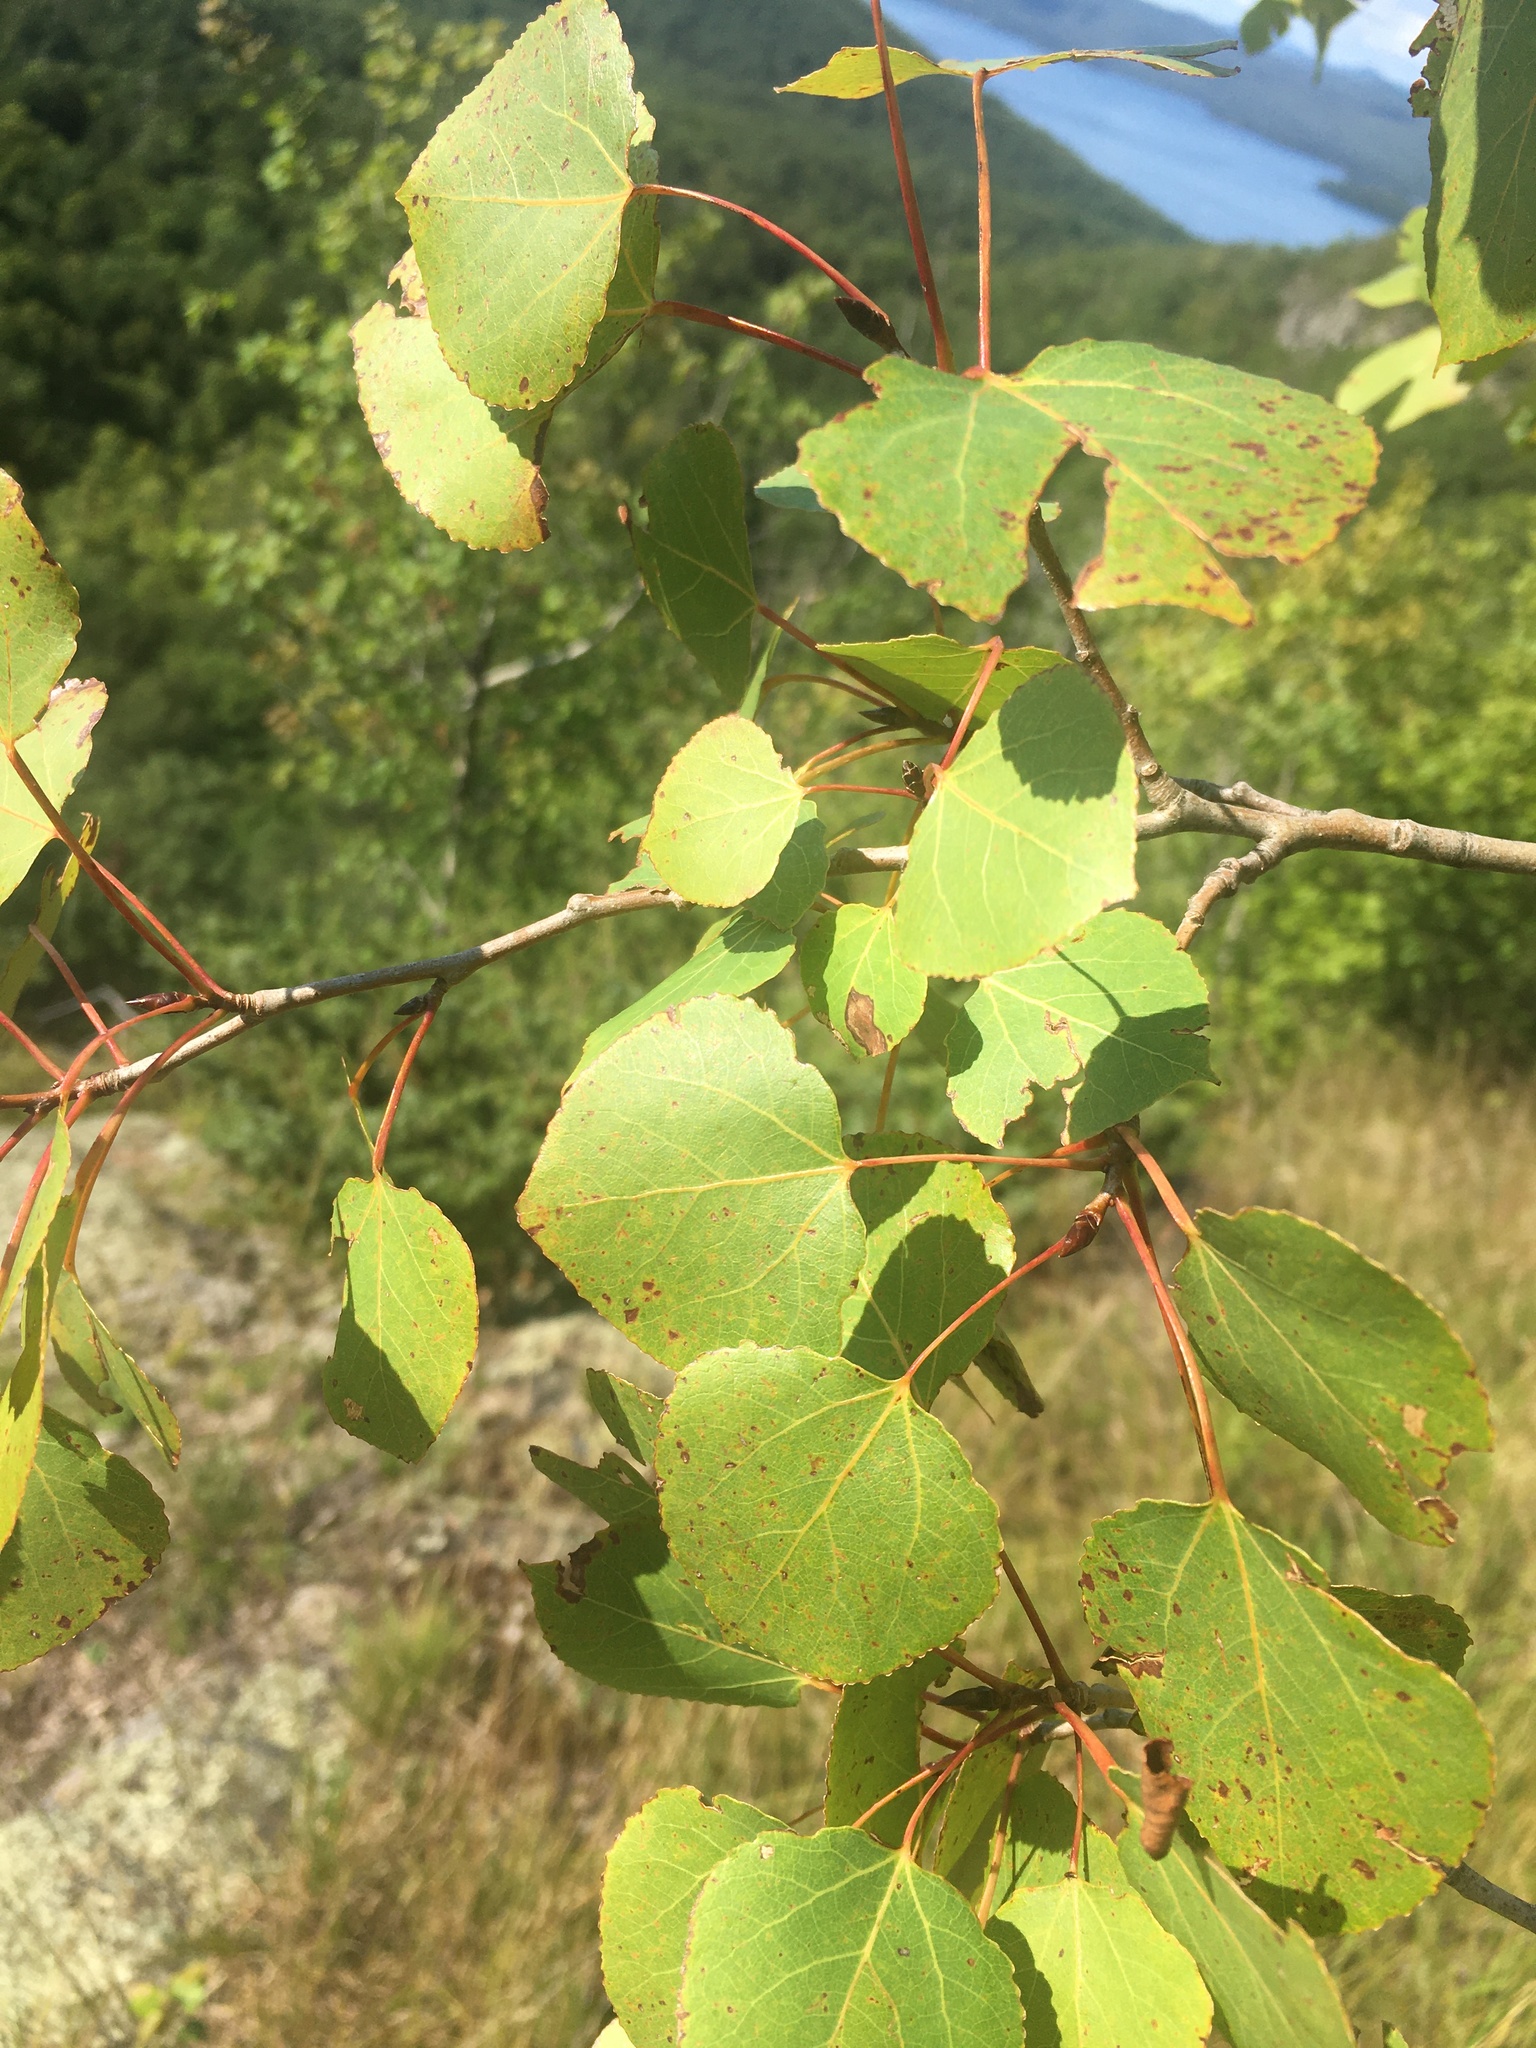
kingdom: Plantae
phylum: Tracheophyta
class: Magnoliopsida
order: Malpighiales
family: Salicaceae
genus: Populus
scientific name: Populus tremuloides
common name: Quaking aspen
